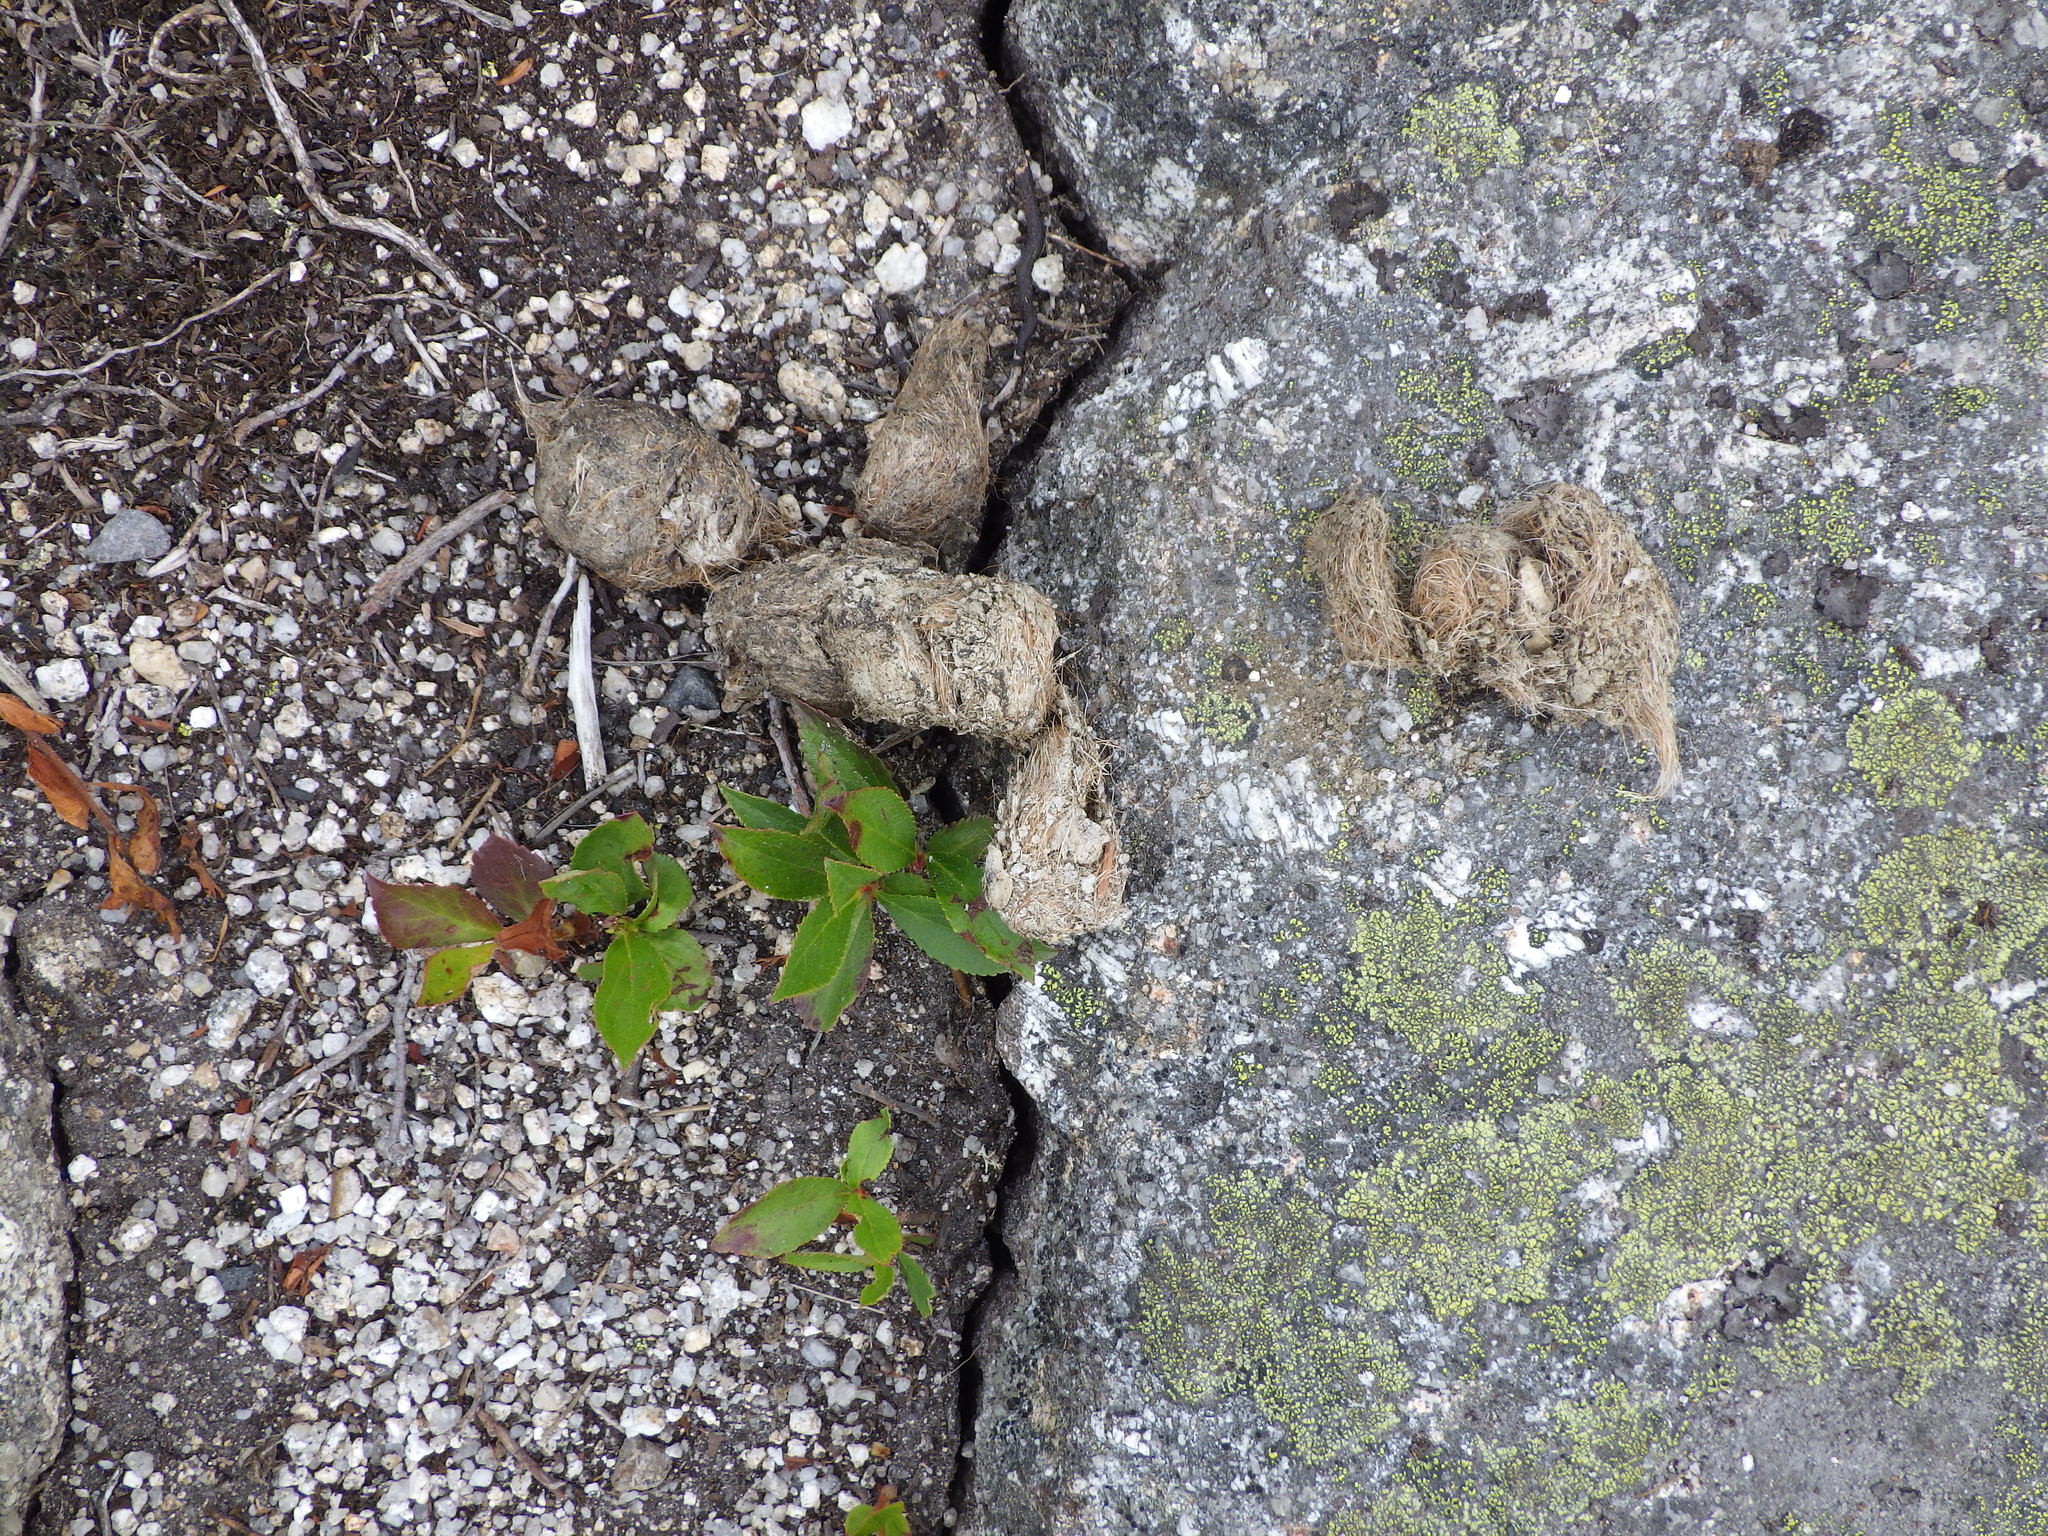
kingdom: Animalia
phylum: Chordata
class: Mammalia
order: Carnivora
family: Canidae
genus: Canis
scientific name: Canis latrans
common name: Coyote
